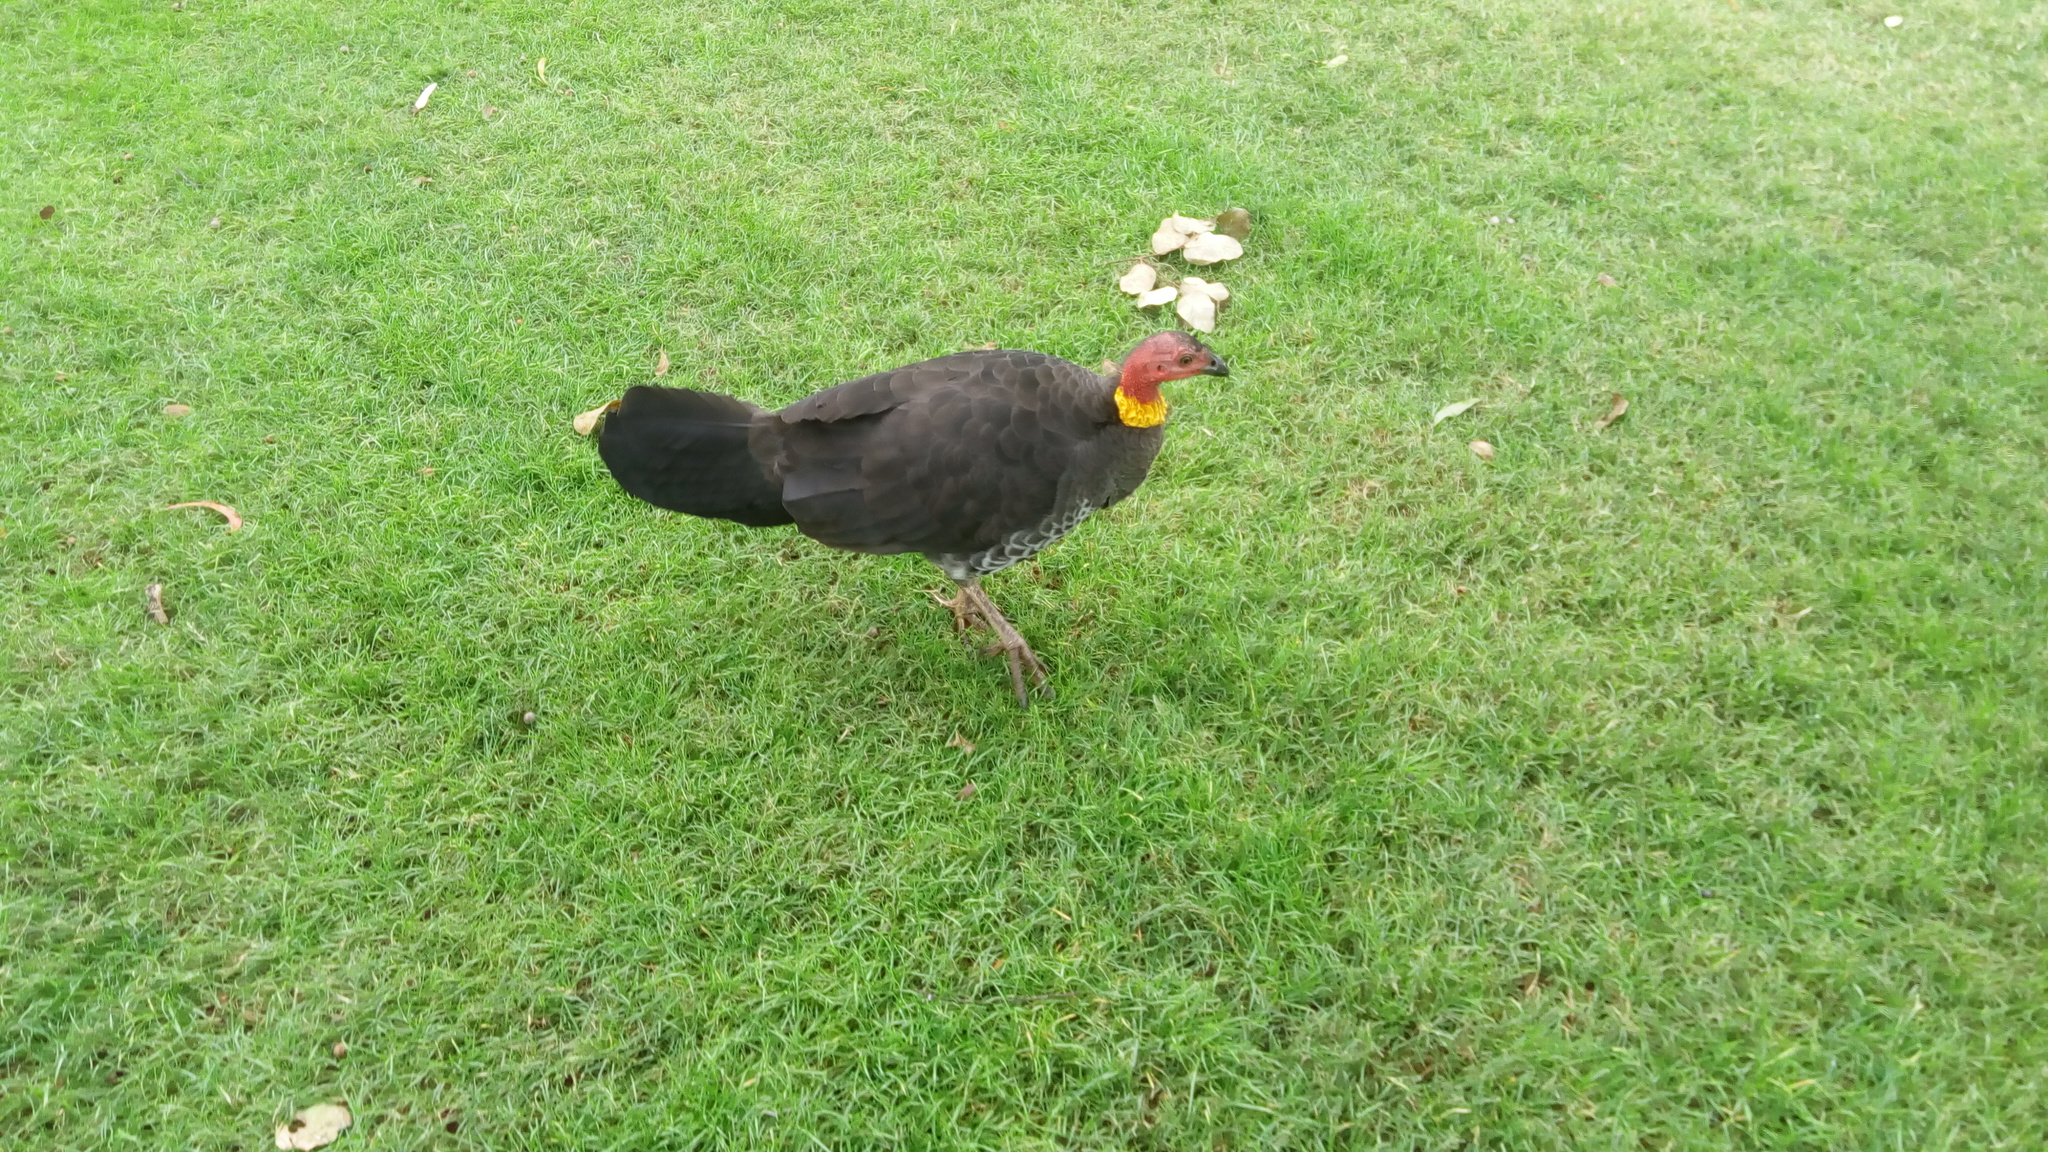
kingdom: Animalia
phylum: Chordata
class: Aves
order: Galliformes
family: Megapodiidae
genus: Alectura
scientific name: Alectura lathami
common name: Australian brushturkey
